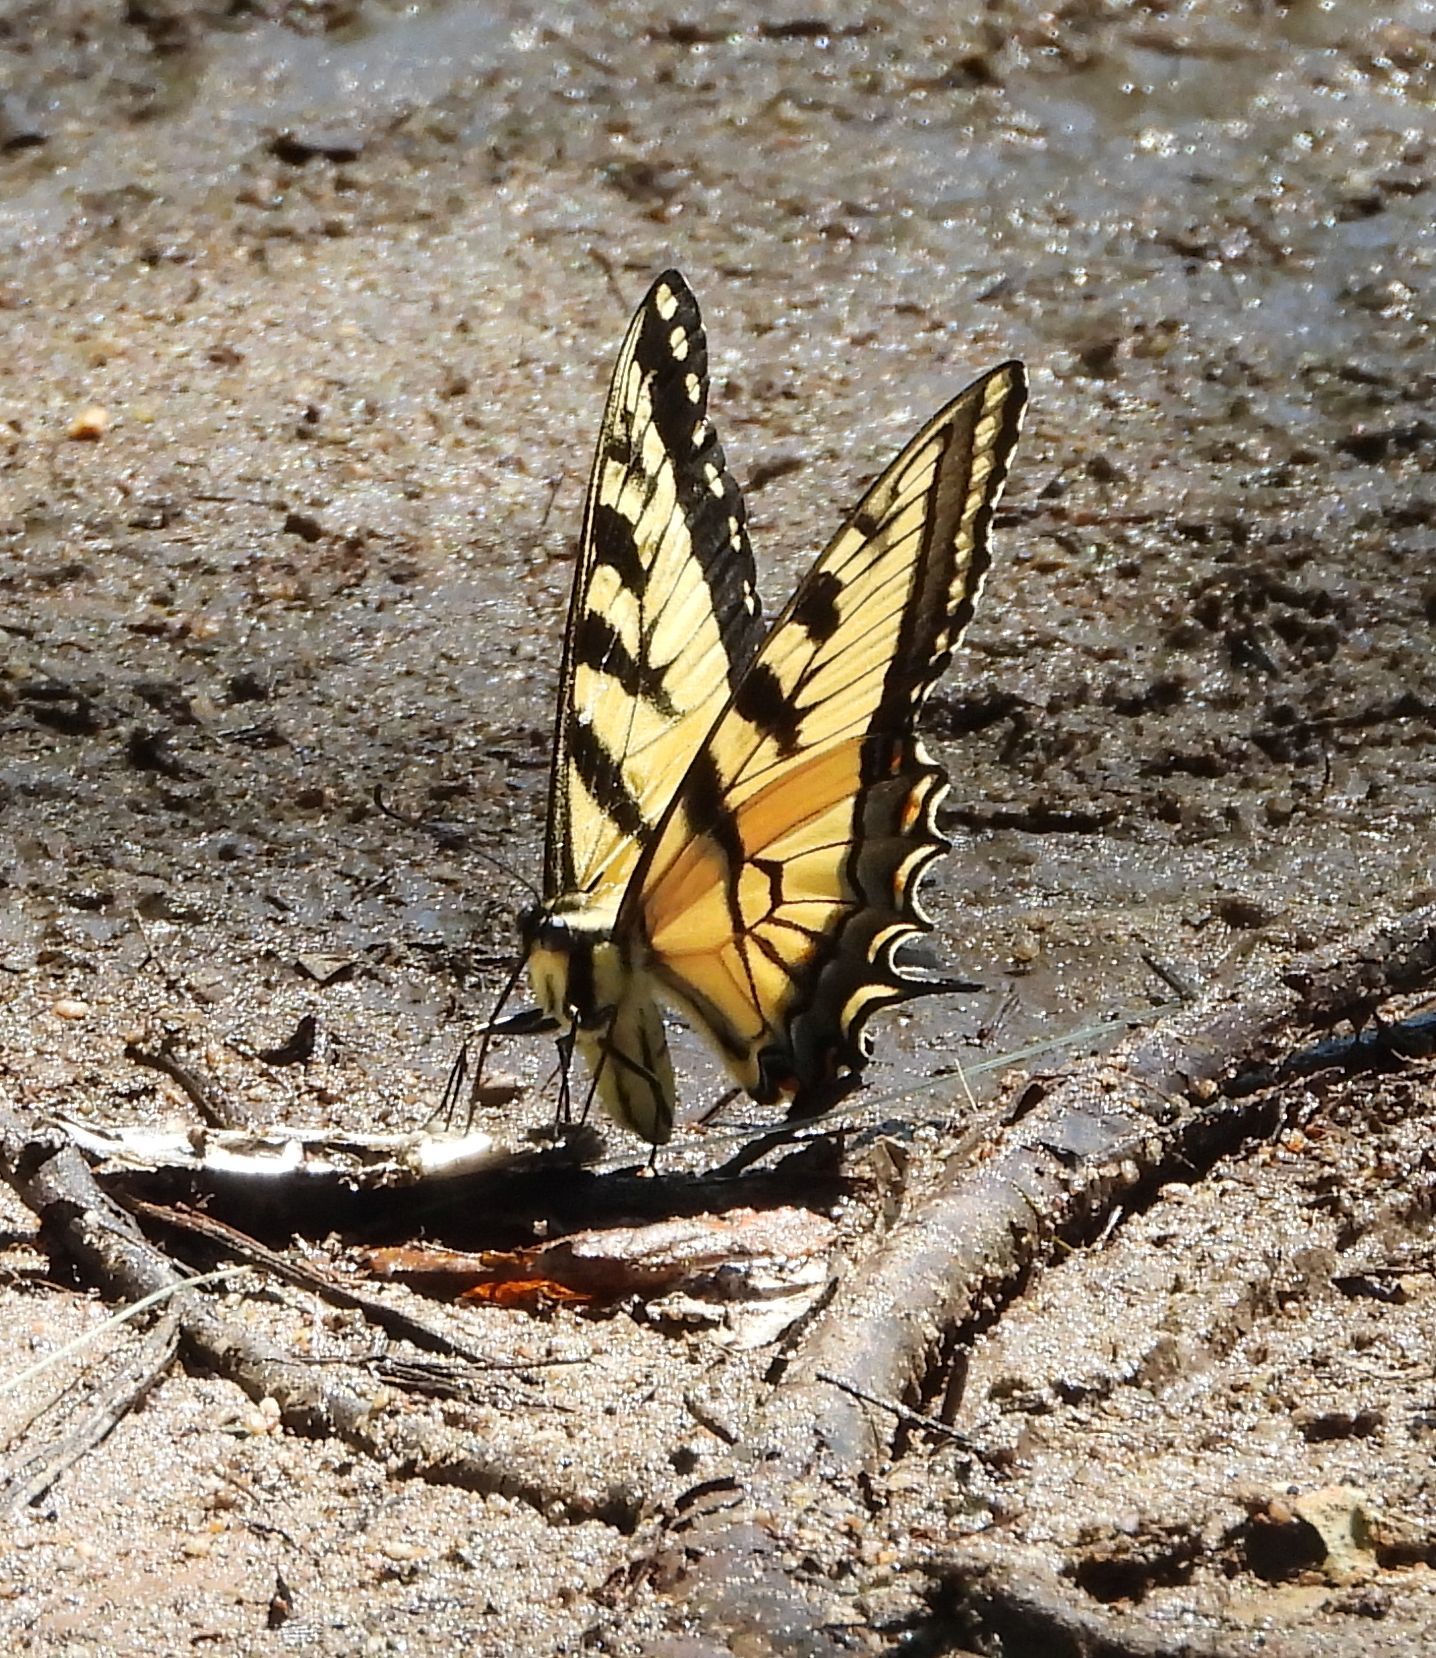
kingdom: Animalia
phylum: Arthropoda
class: Insecta
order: Lepidoptera
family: Papilionidae
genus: Papilio
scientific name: Papilio
